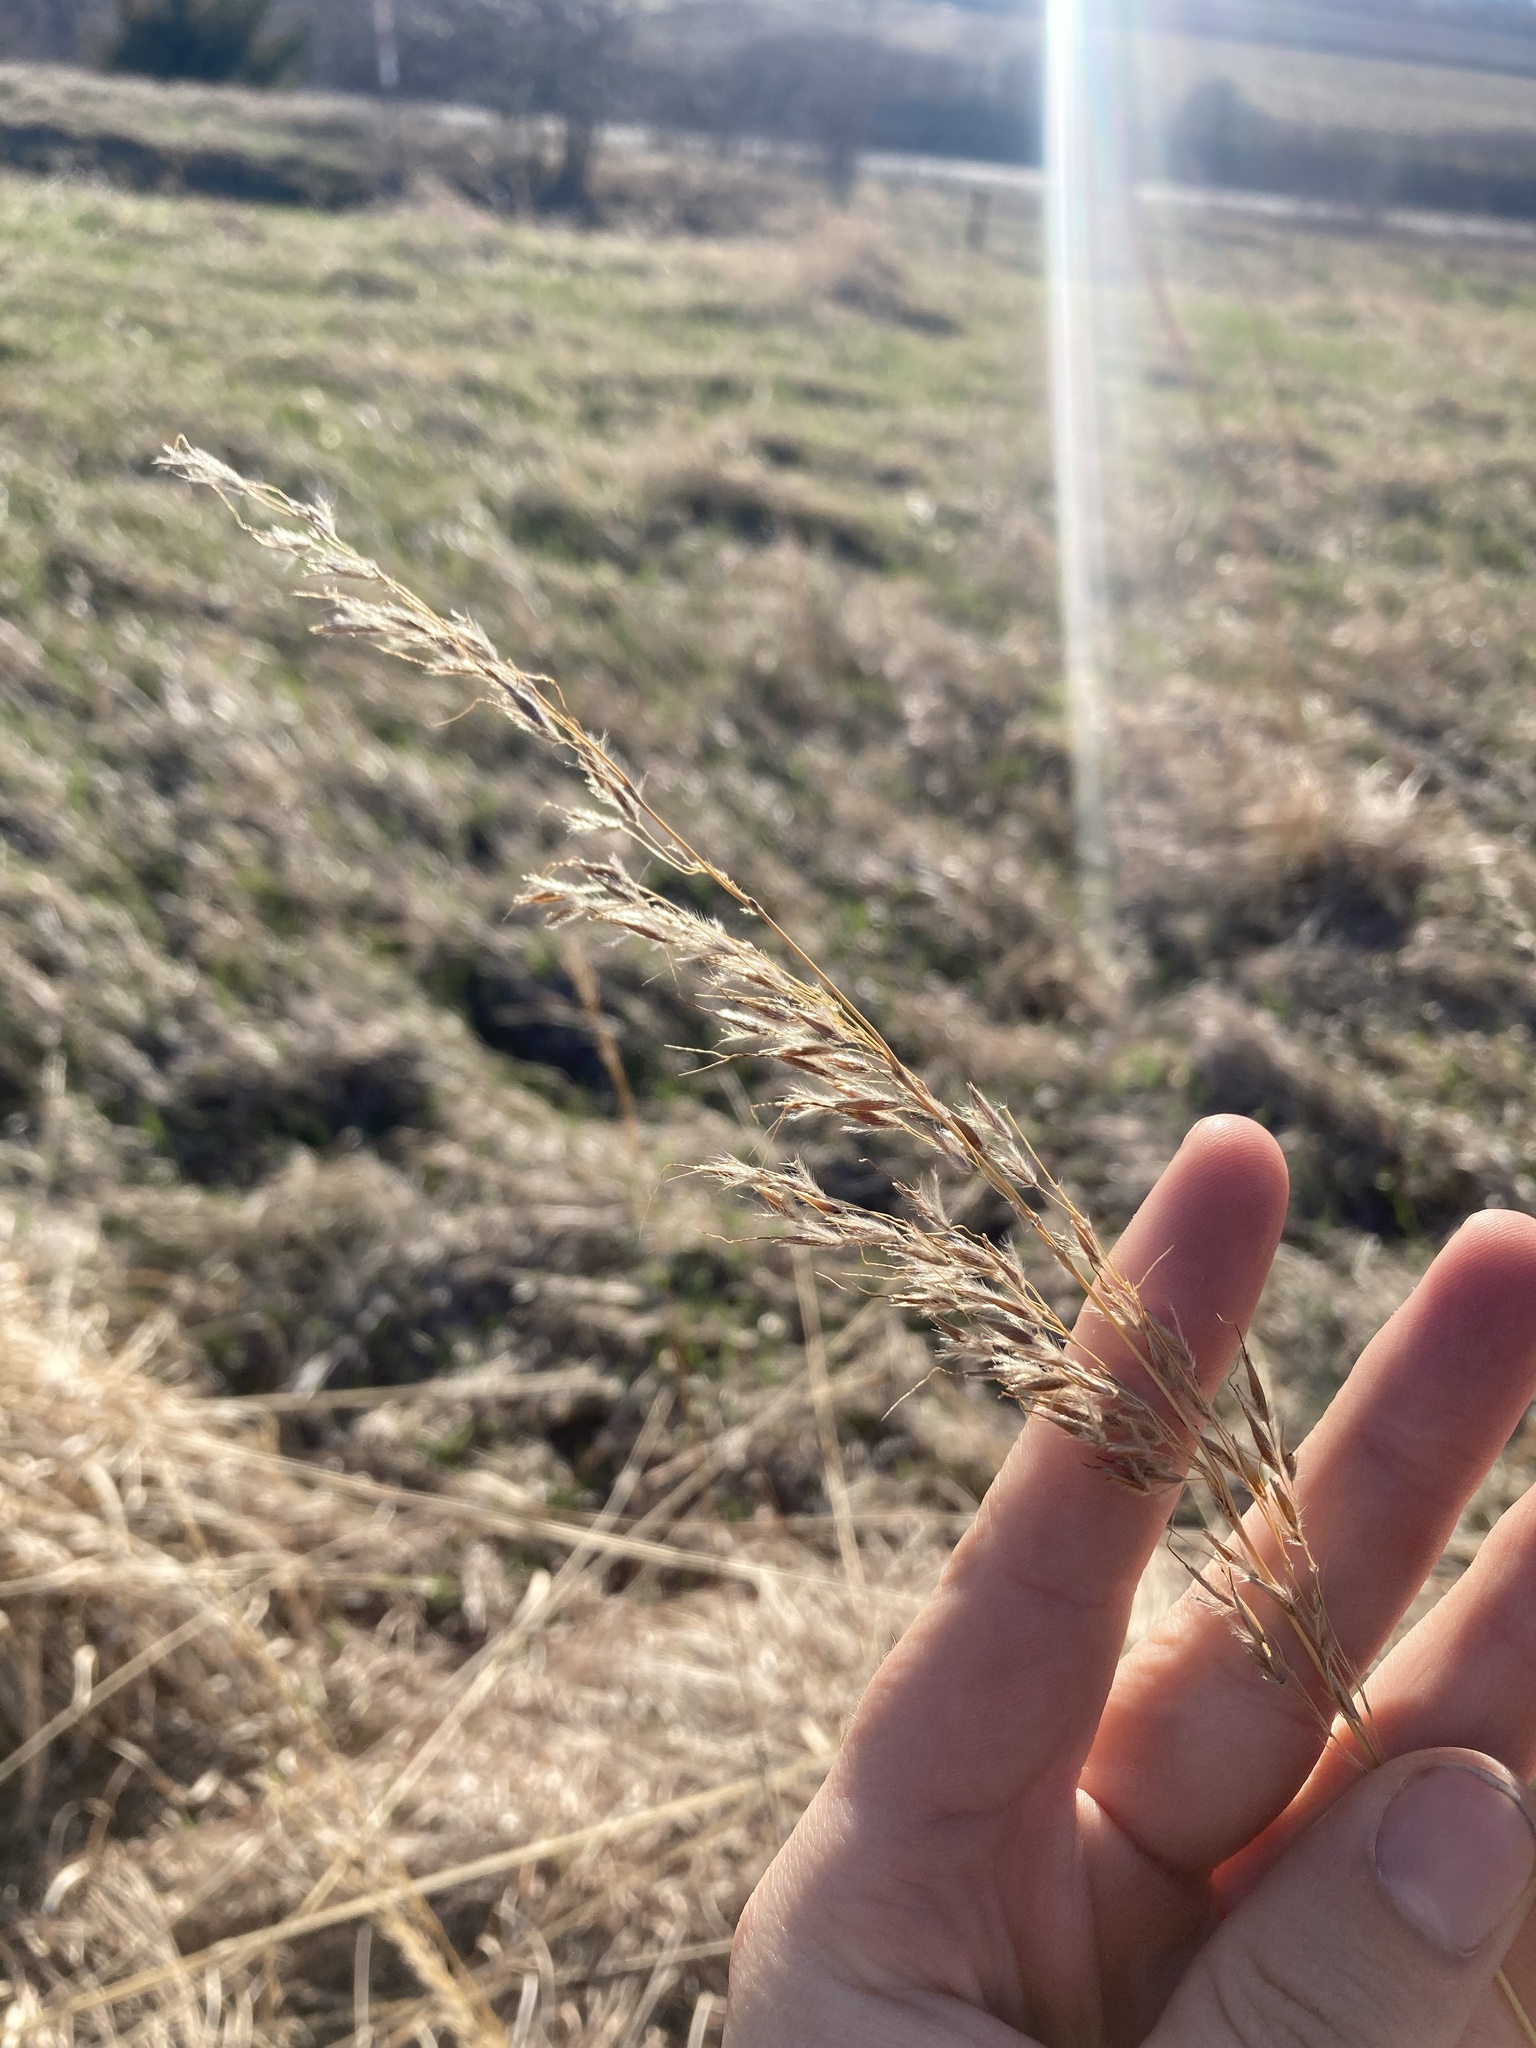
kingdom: Plantae
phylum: Tracheophyta
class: Liliopsida
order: Poales
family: Poaceae
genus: Sorghastrum
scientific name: Sorghastrum nutans
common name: Indian grass
